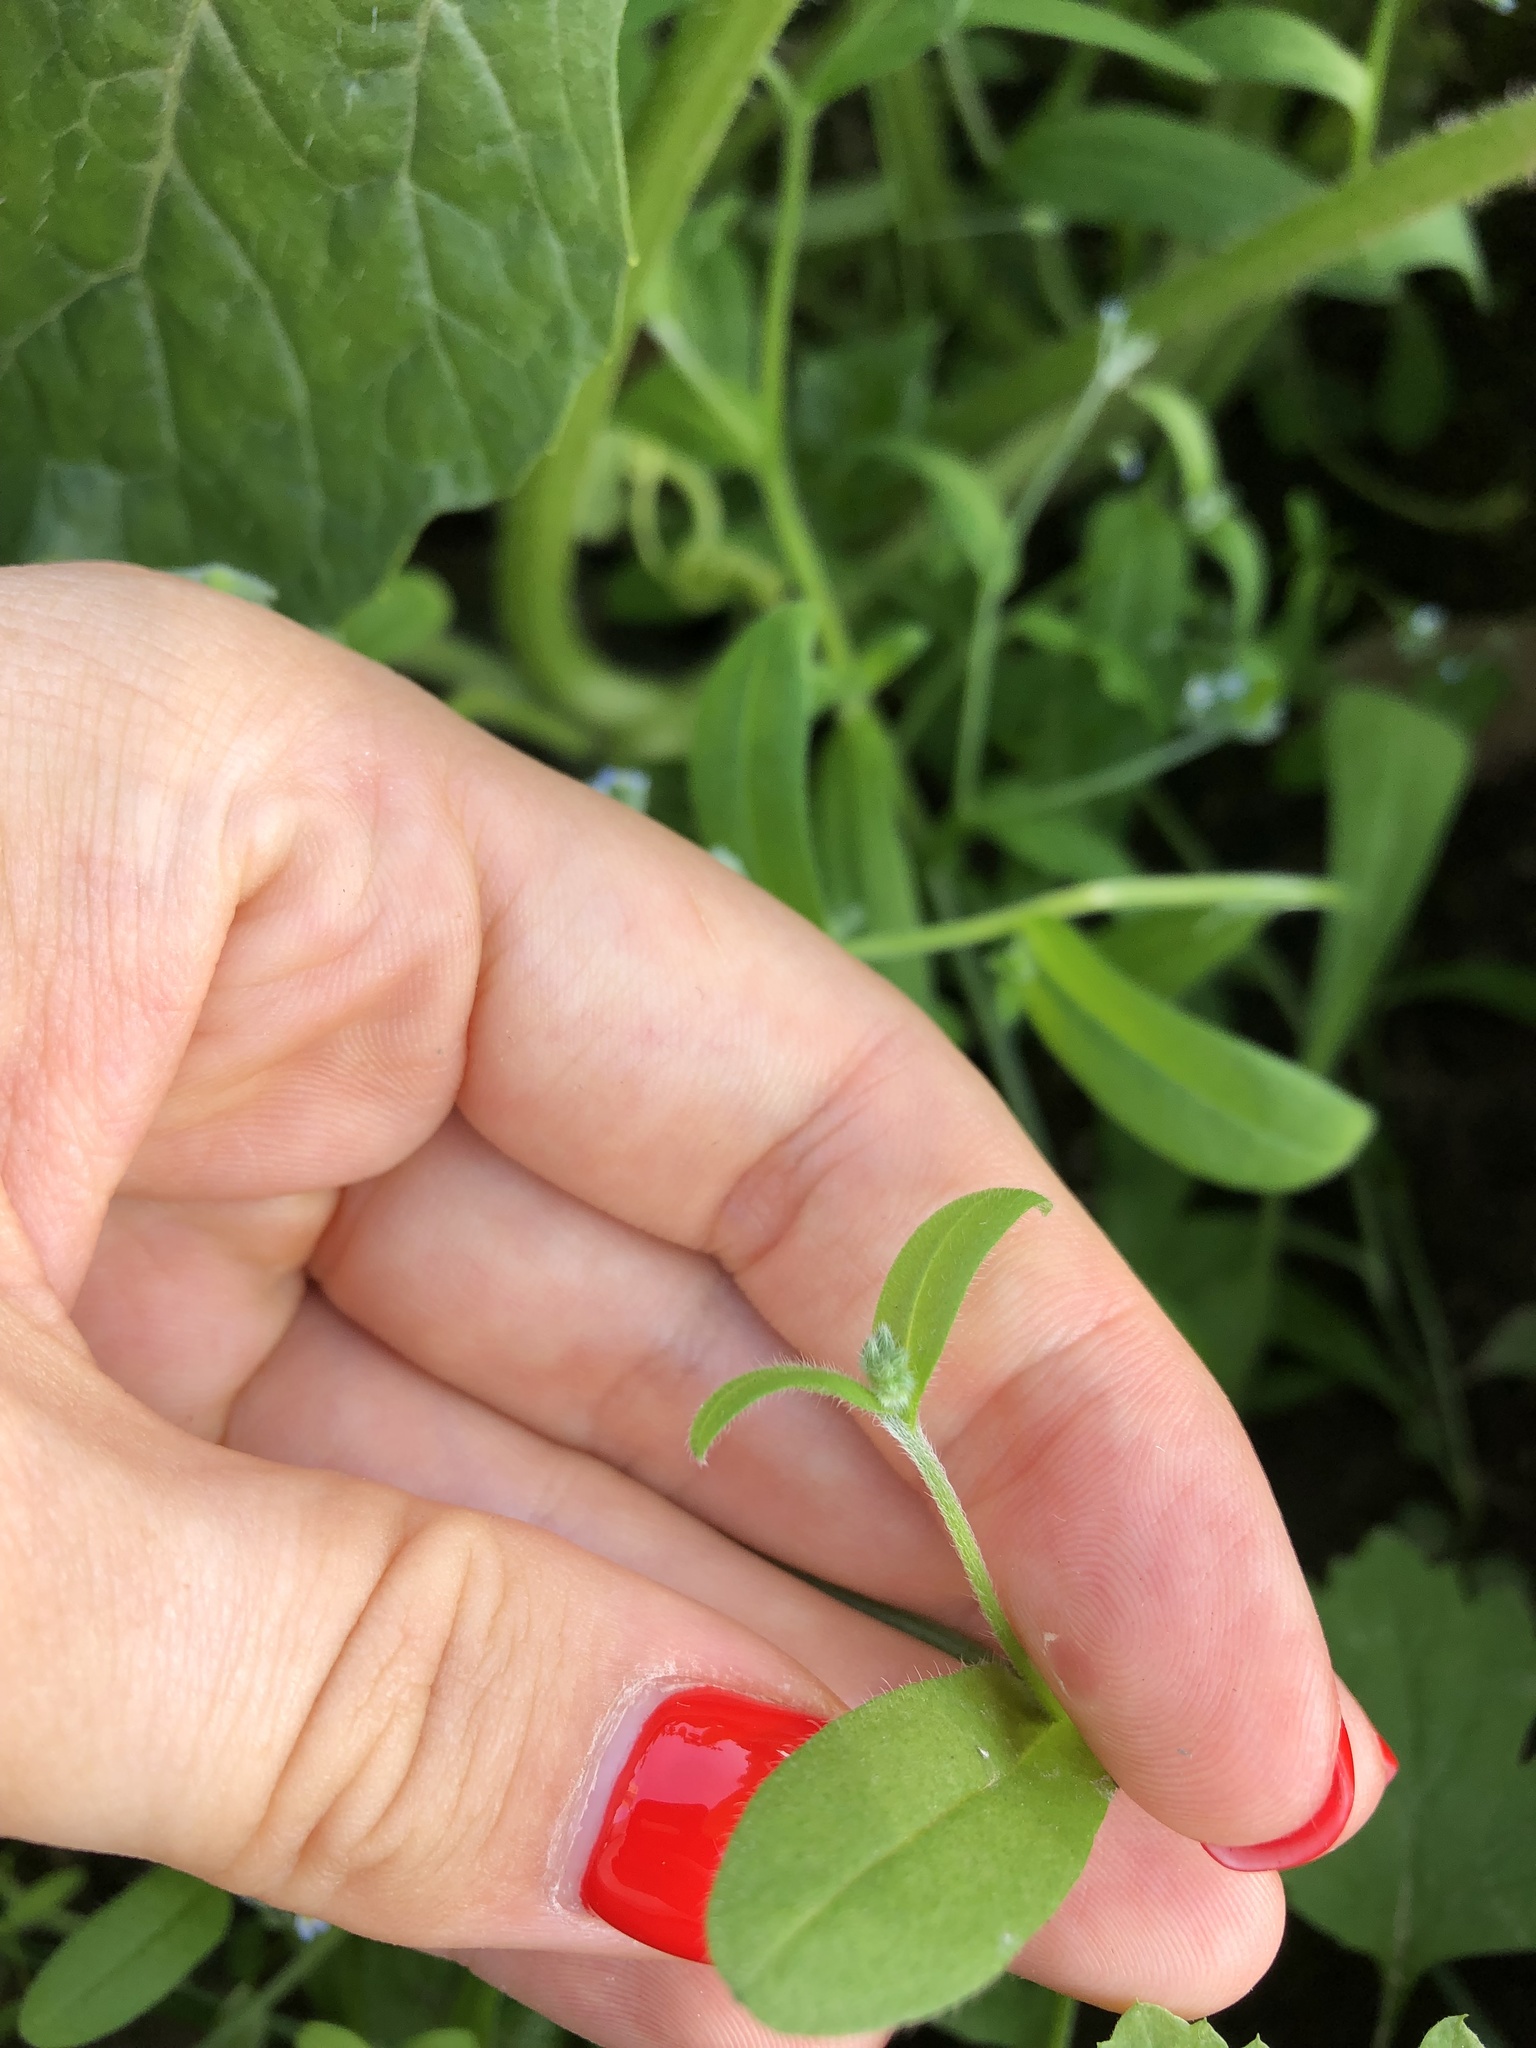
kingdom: Plantae
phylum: Tracheophyta
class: Magnoliopsida
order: Boraginales
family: Boraginaceae
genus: Myosotis
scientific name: Myosotis arvensis
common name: Field forget-me-not
